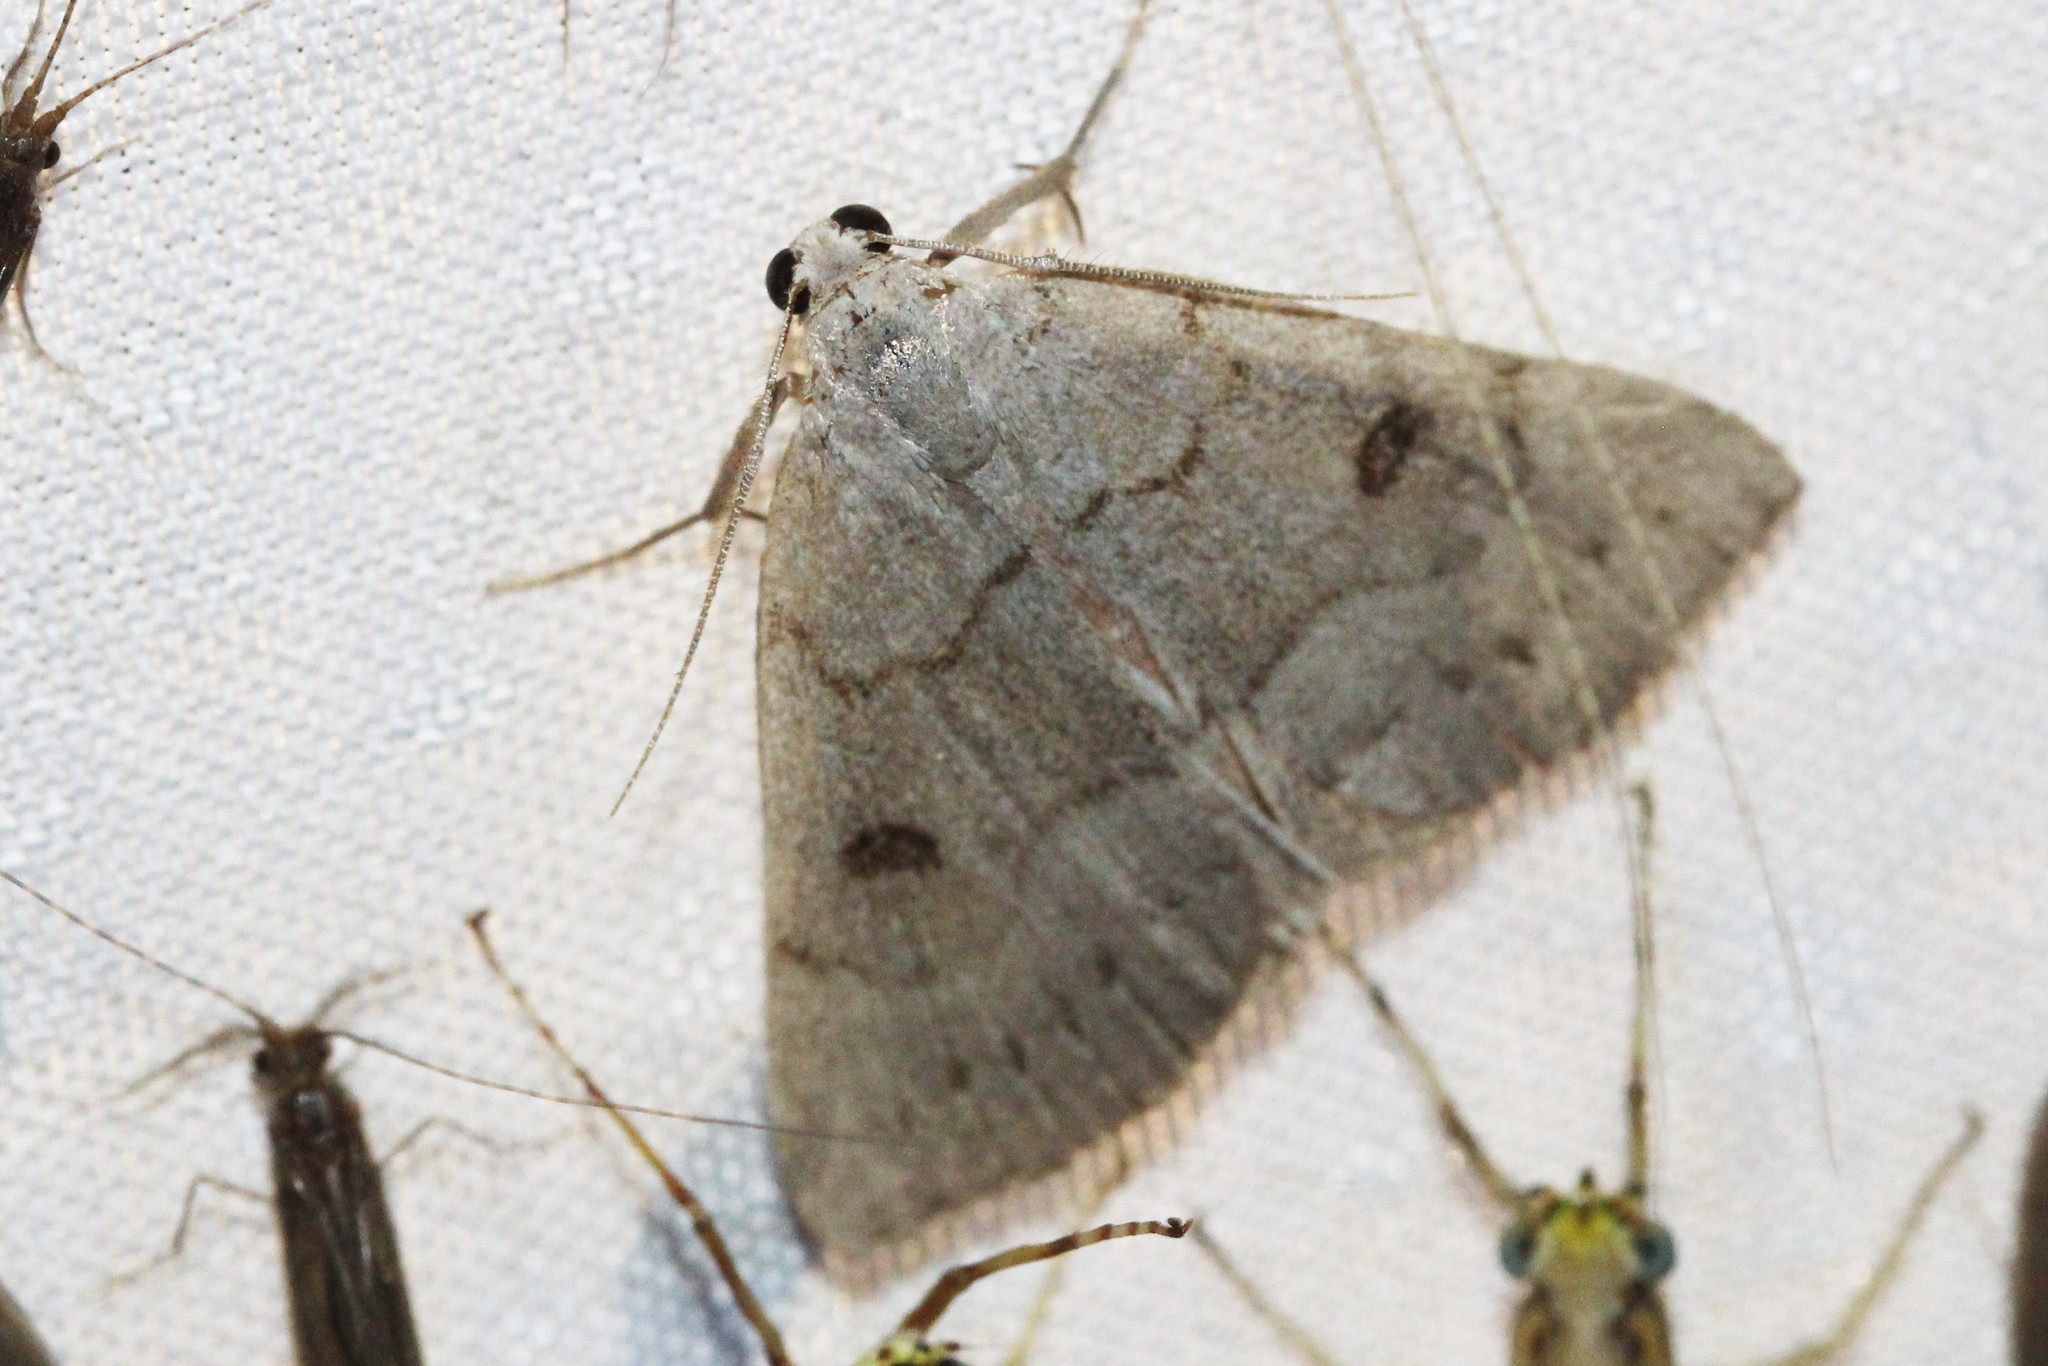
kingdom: Animalia
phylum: Arthropoda
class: Insecta
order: Lepidoptera
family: Erebidae
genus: Macrochilo
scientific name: Macrochilo morbidalis
